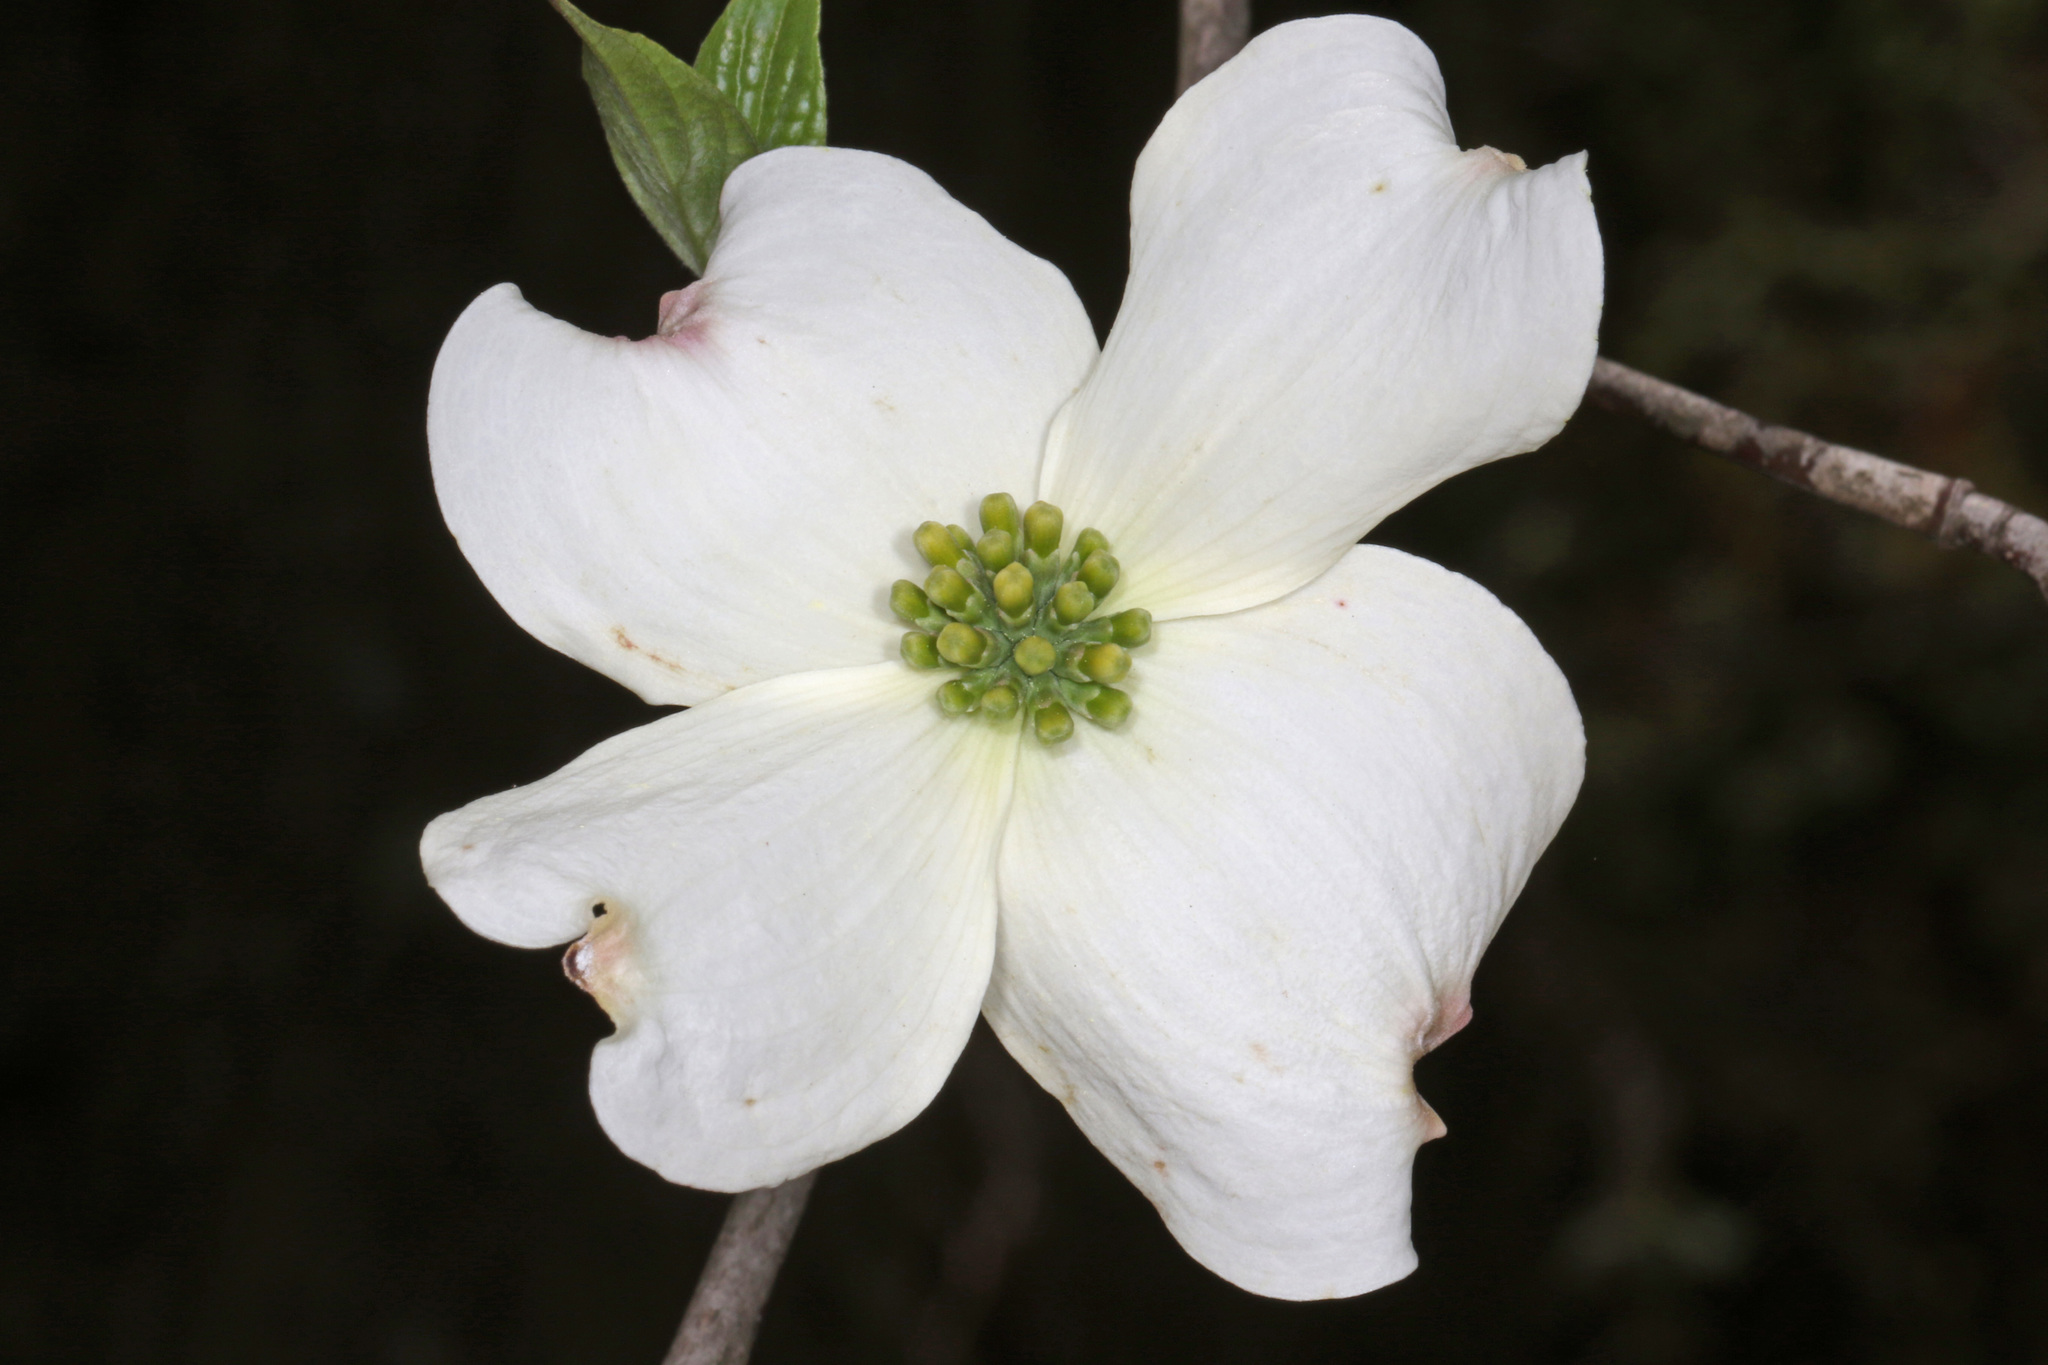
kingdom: Plantae
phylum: Tracheophyta
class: Magnoliopsida
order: Cornales
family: Cornaceae
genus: Cornus
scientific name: Cornus florida
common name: Flowering dogwood
